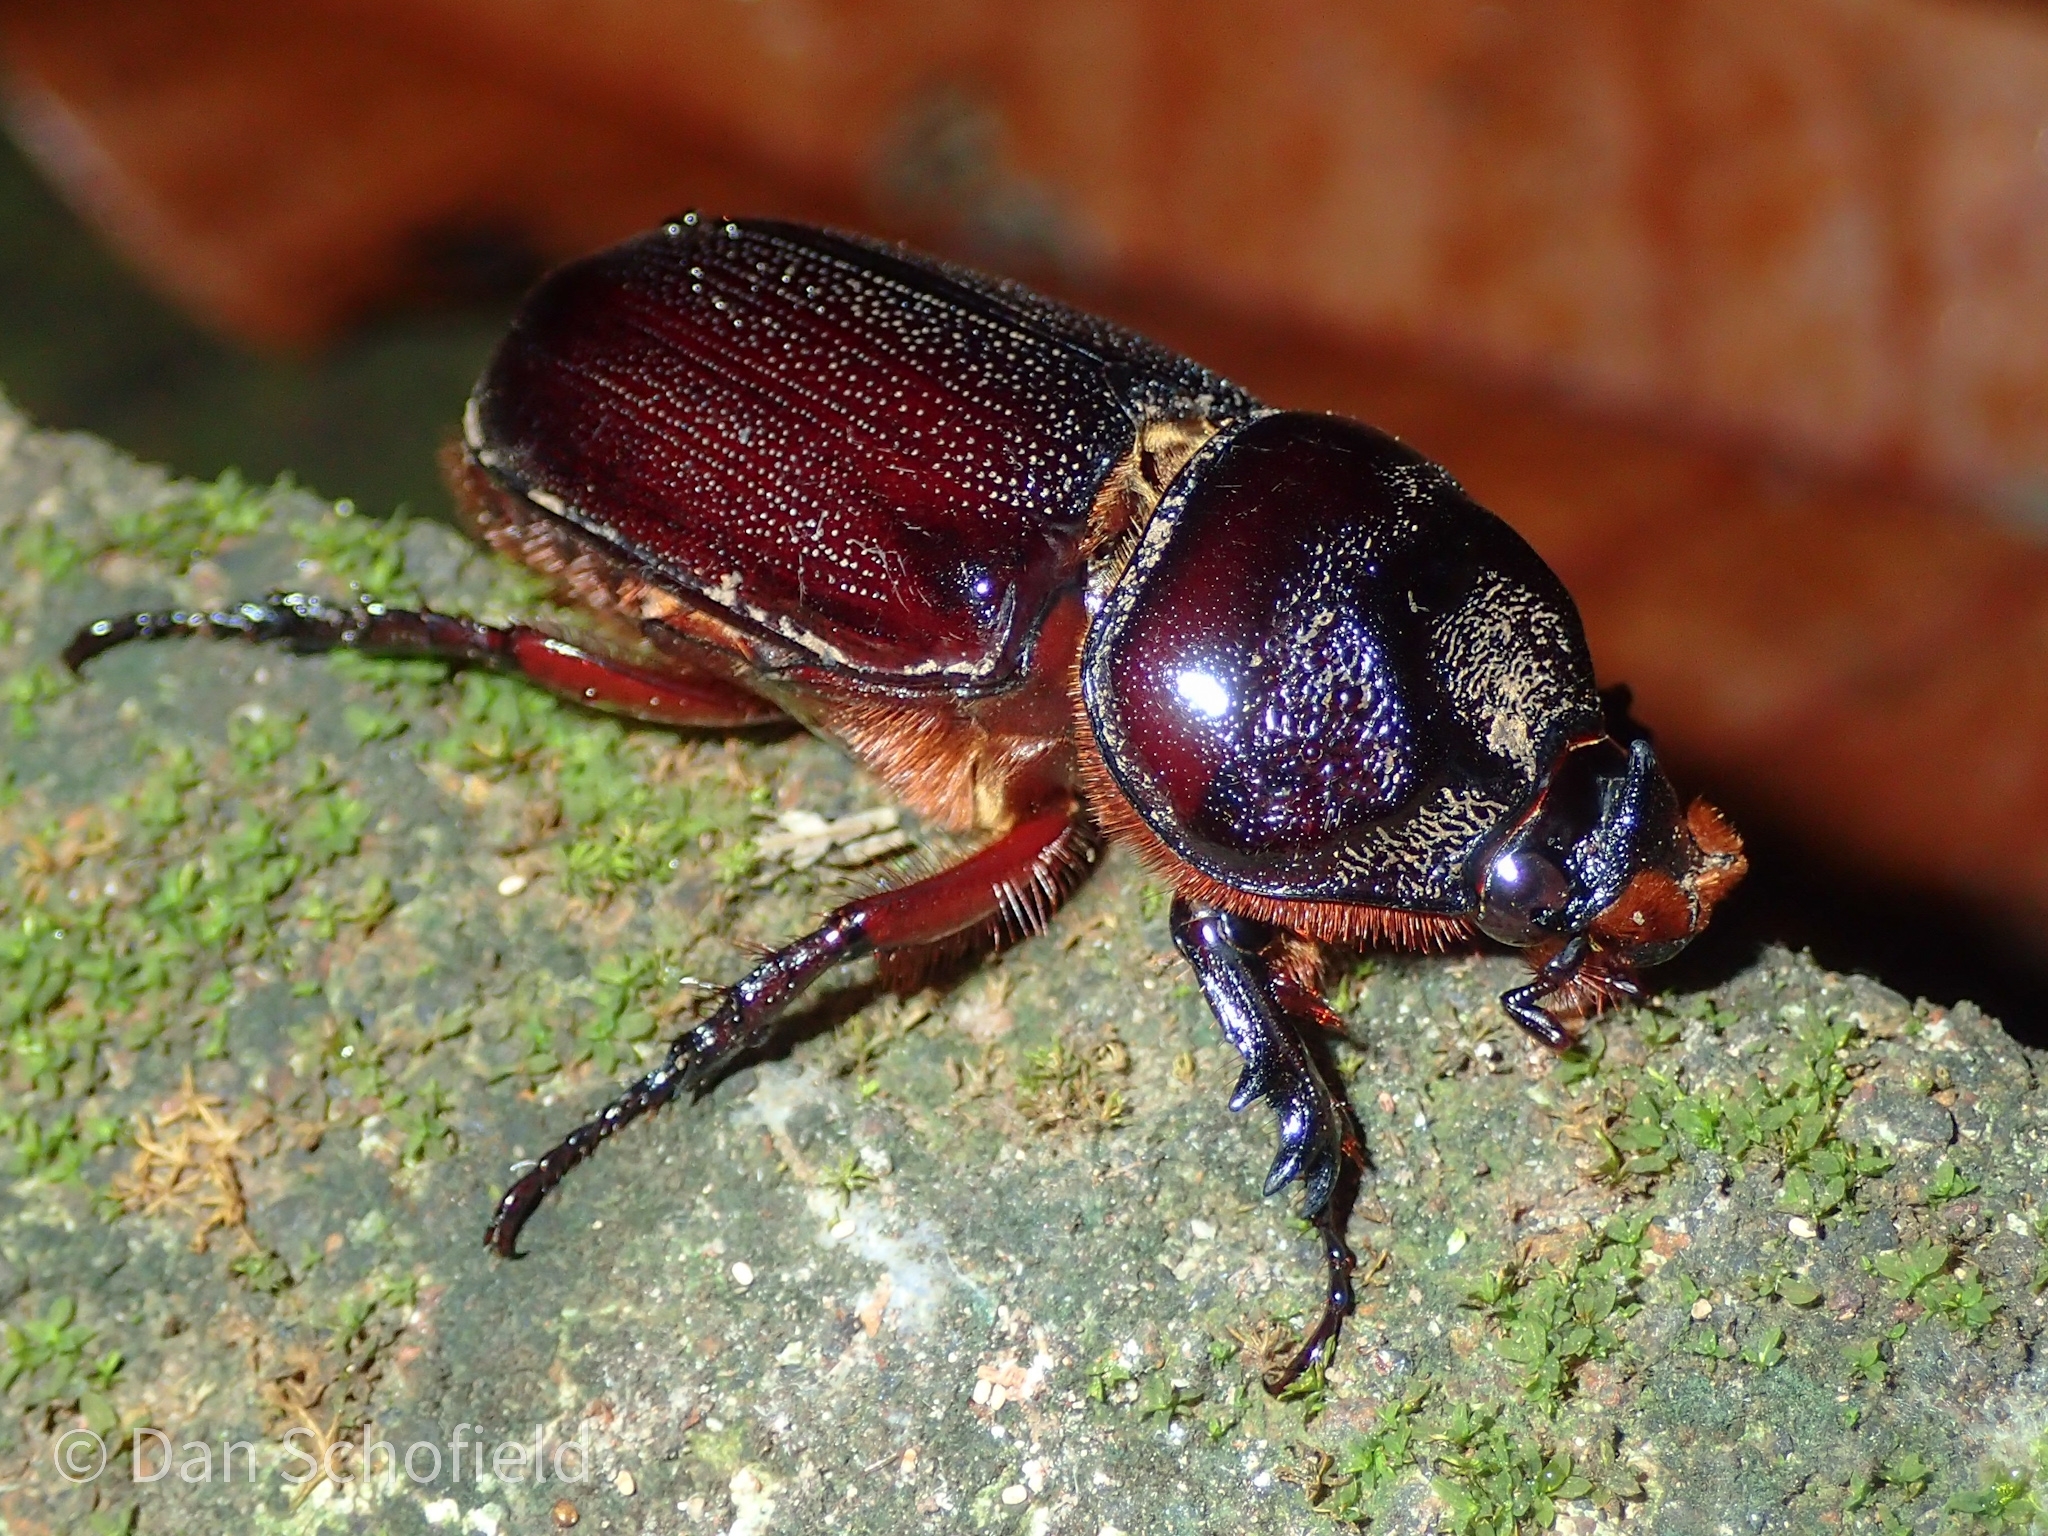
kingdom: Animalia
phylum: Arthropoda
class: Insecta
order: Coleoptera
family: Scarabaeidae
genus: Oryctes
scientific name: Oryctes rhinoceros
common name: Coconut rhinoceros beetle
